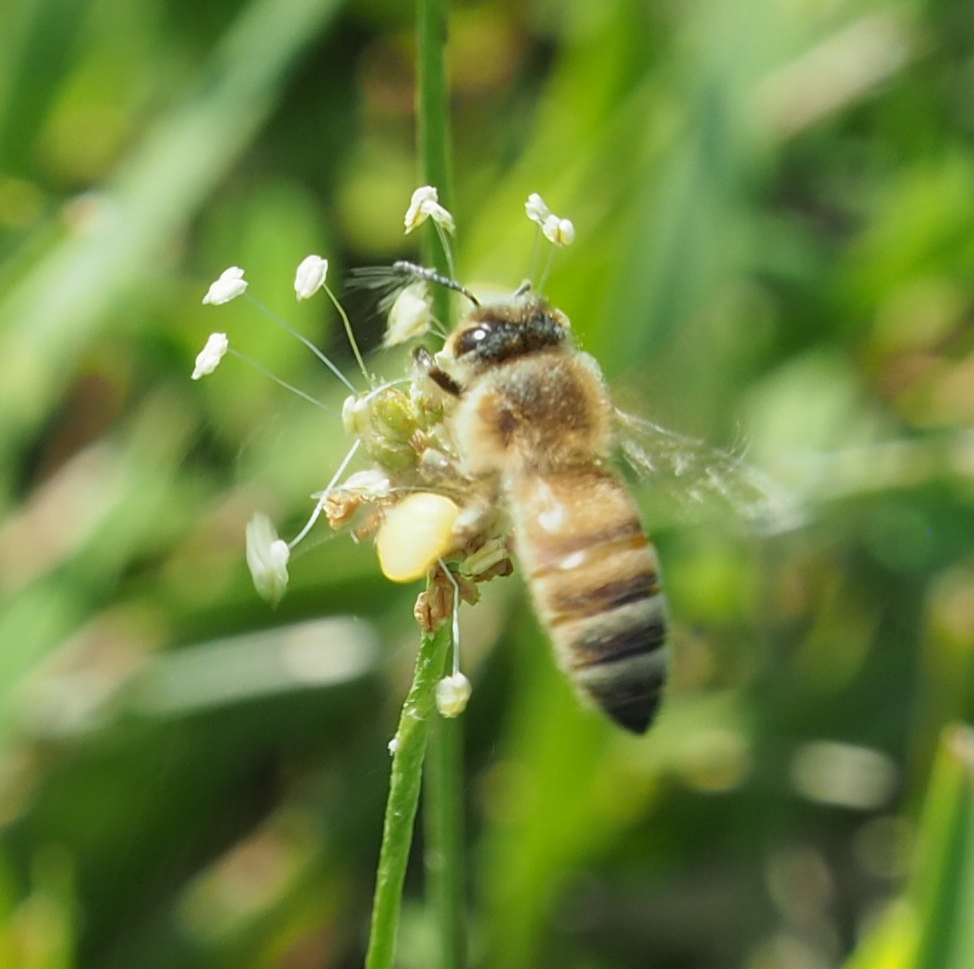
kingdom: Animalia
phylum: Arthropoda
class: Insecta
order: Hymenoptera
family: Apidae
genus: Apis
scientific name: Apis mellifera
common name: Honey bee
